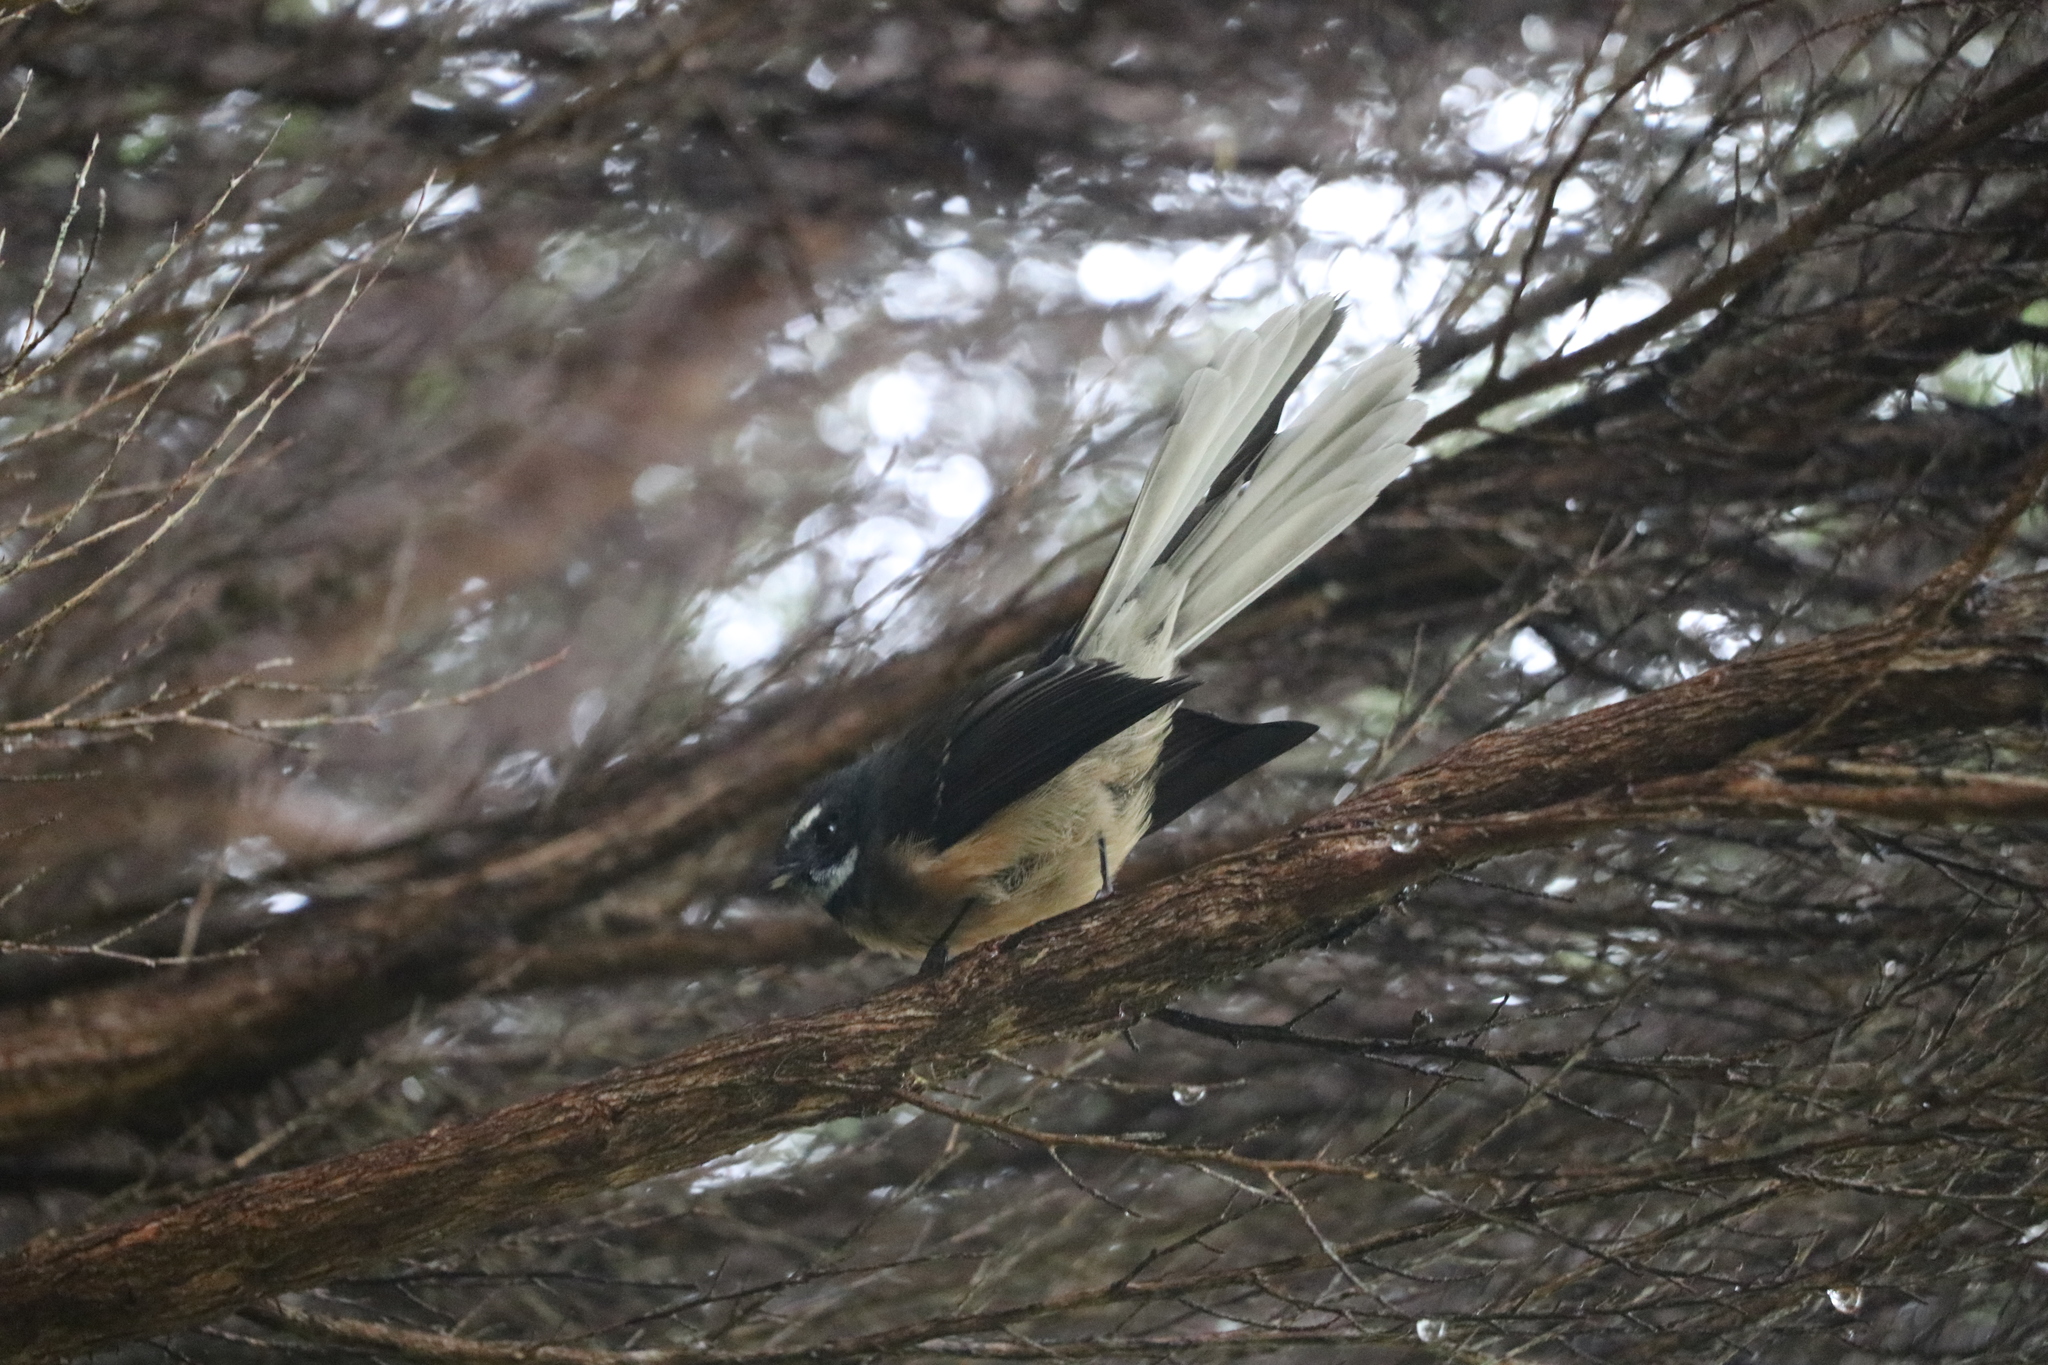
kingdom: Animalia
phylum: Chordata
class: Aves
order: Passeriformes
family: Rhipiduridae
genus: Rhipidura
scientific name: Rhipidura fuliginosa
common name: New zealand fantail
